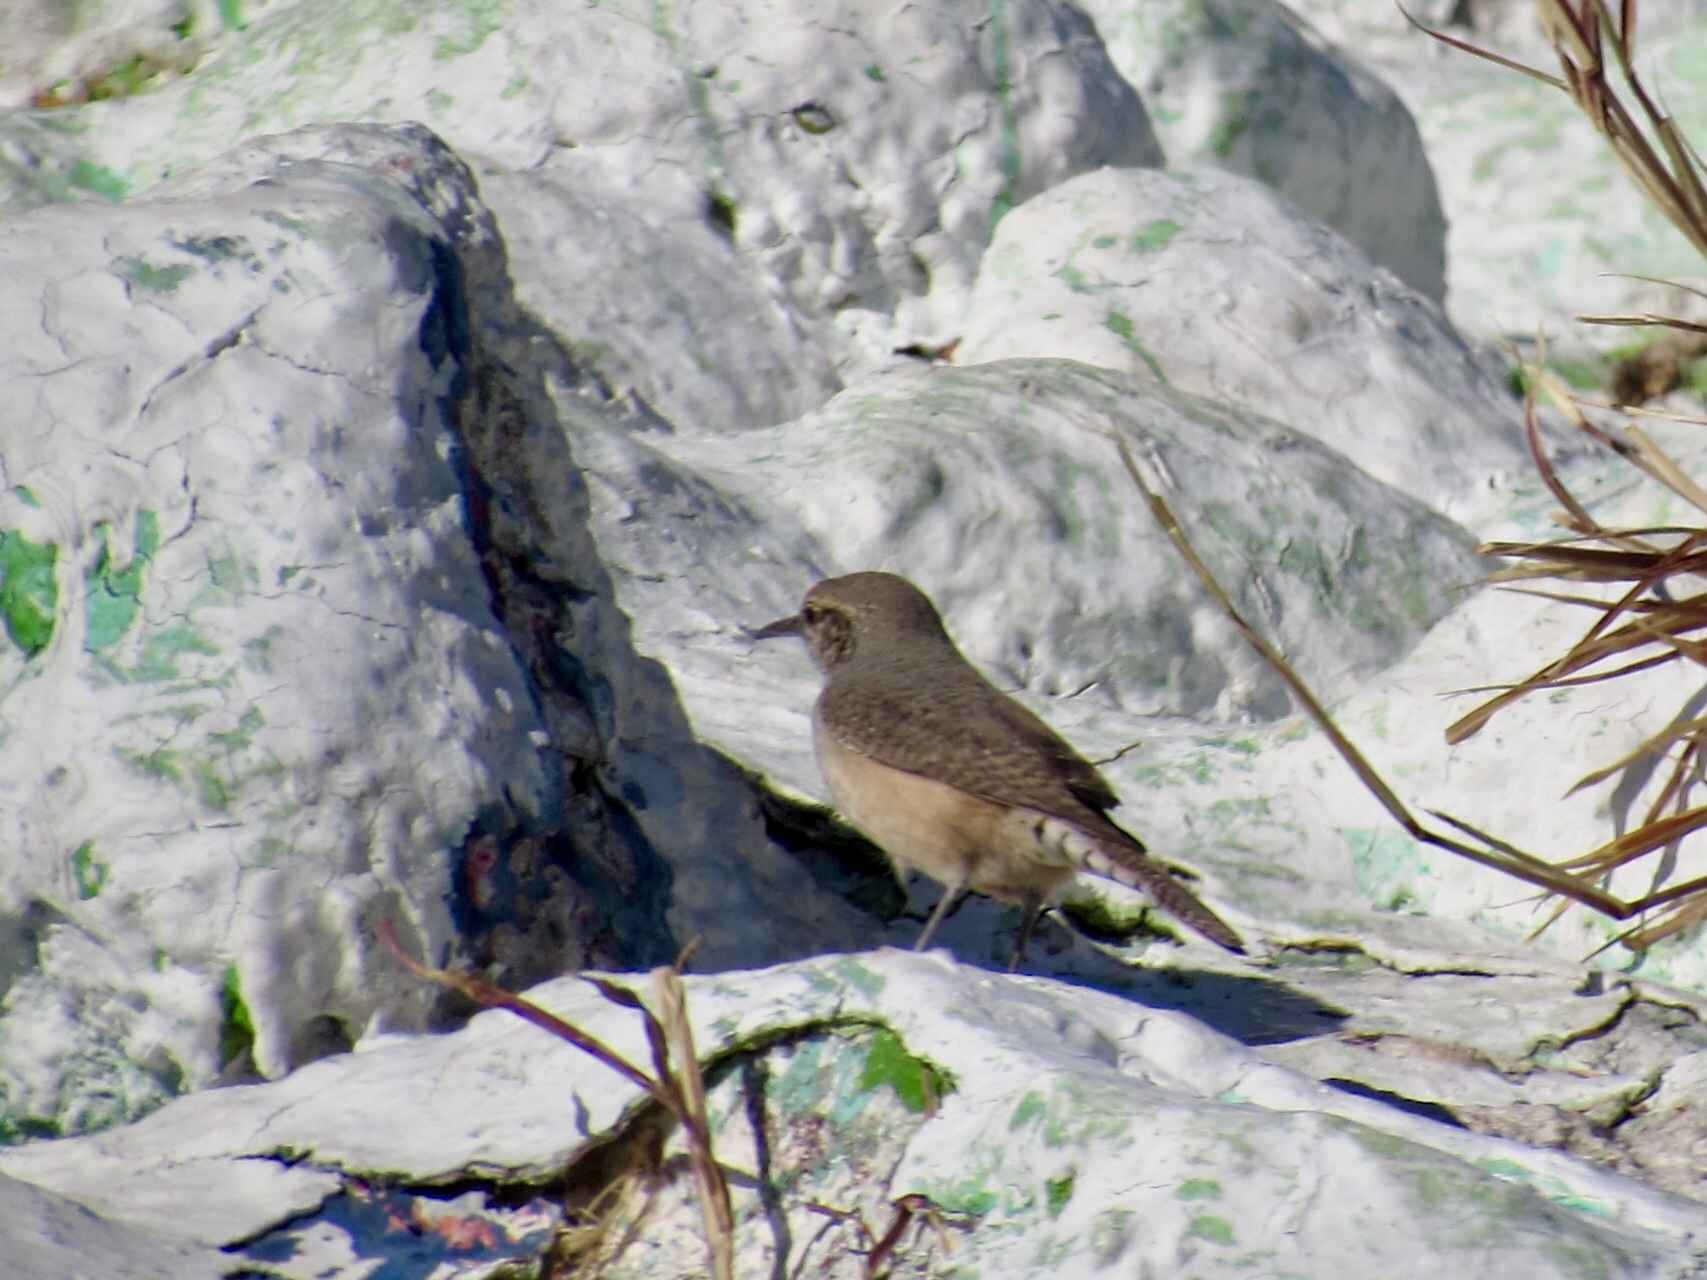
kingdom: Animalia
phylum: Chordata
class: Aves
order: Passeriformes
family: Troglodytidae
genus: Salpinctes
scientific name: Salpinctes obsoletus
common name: Rock wren
